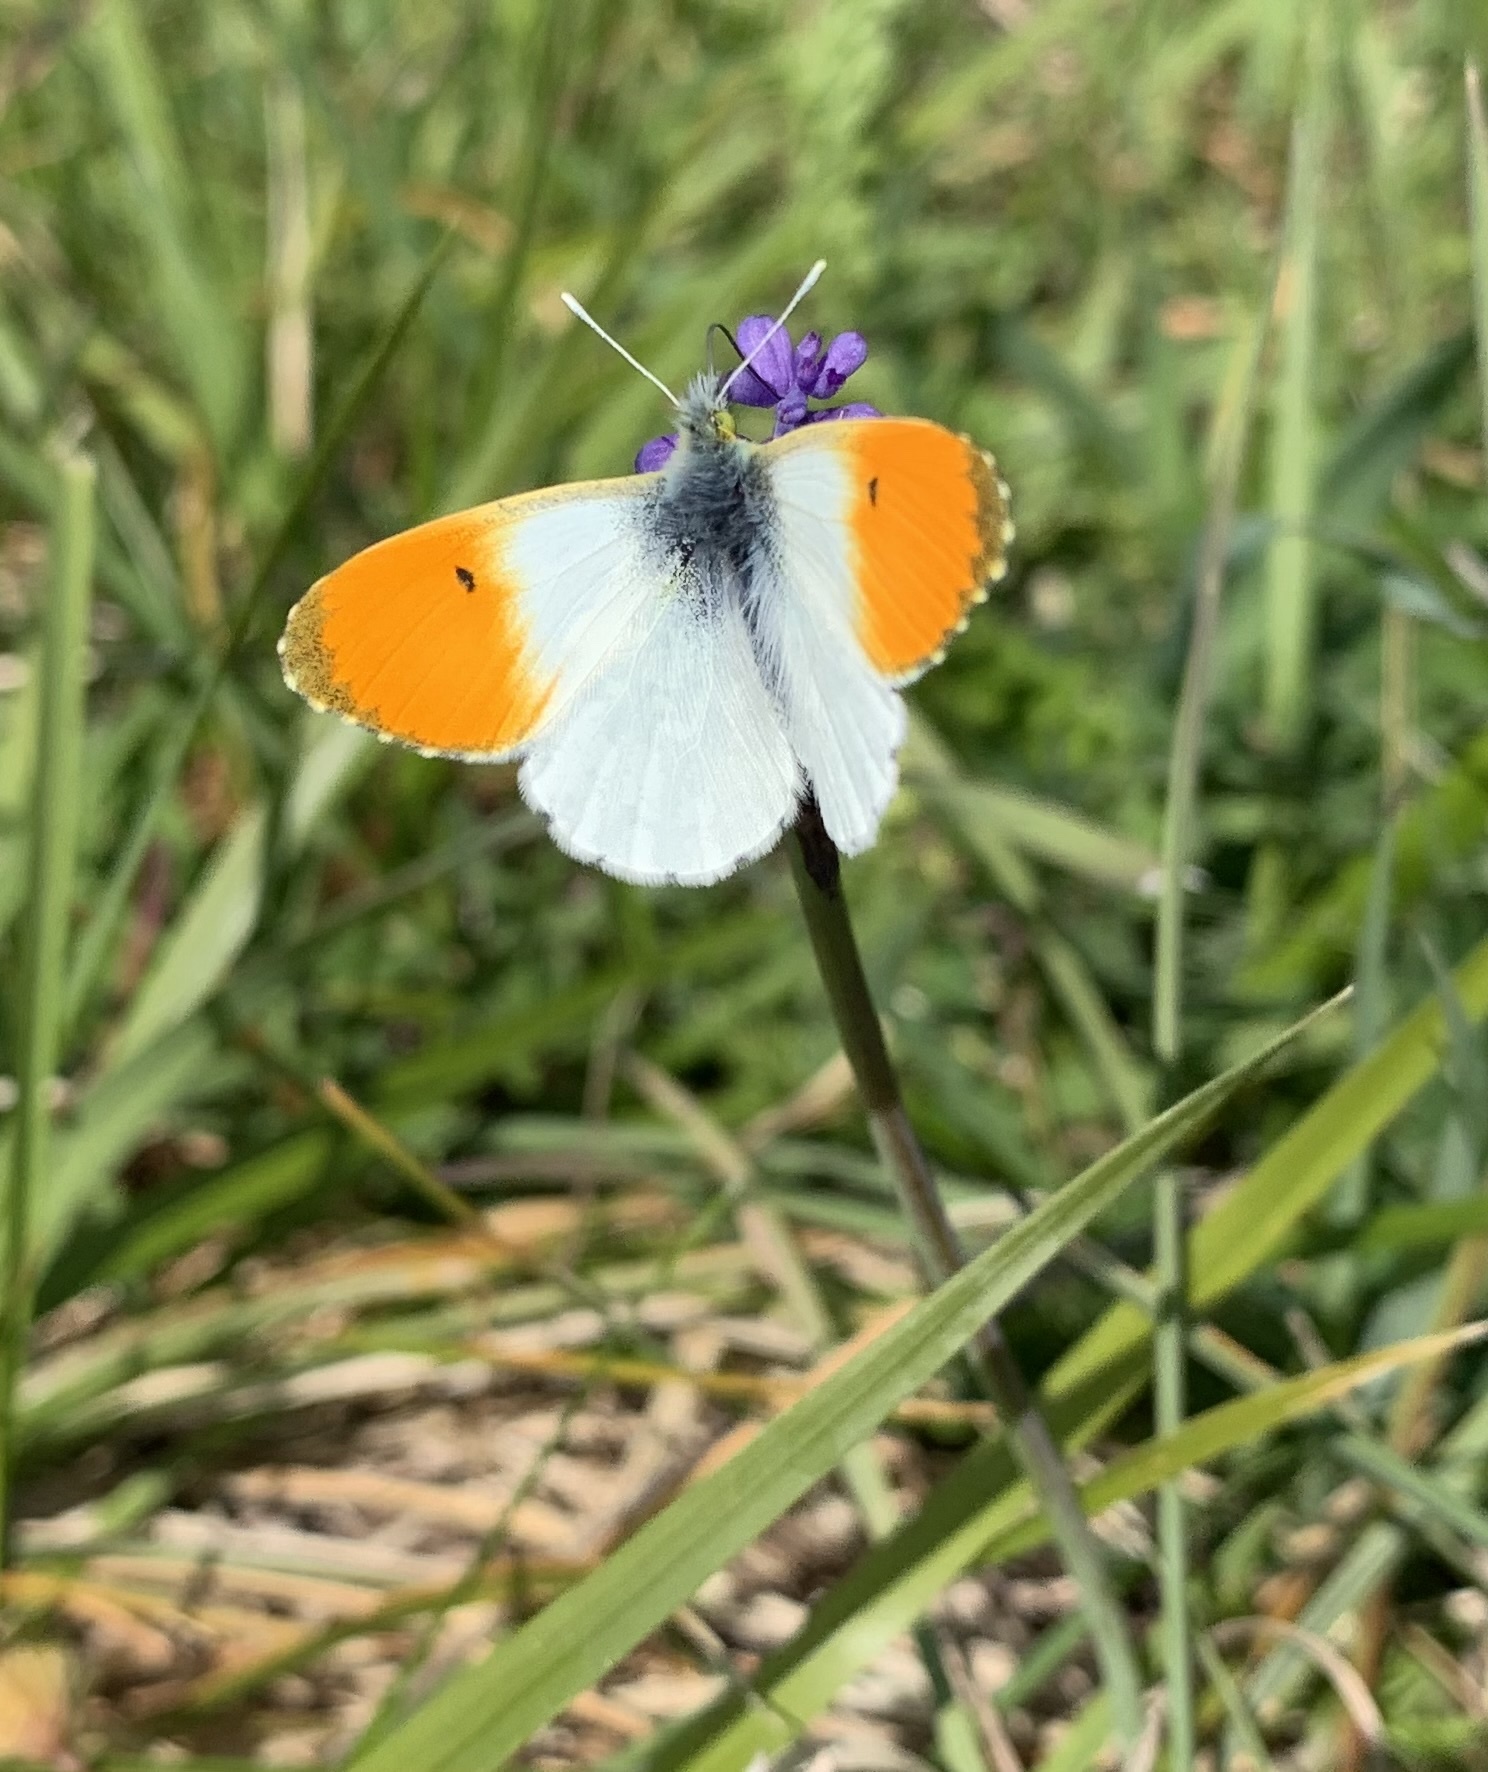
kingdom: Animalia
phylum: Arthropoda
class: Insecta
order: Lepidoptera
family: Pieridae
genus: Anthocharis
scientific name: Anthocharis cardamines
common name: Orange-tip
